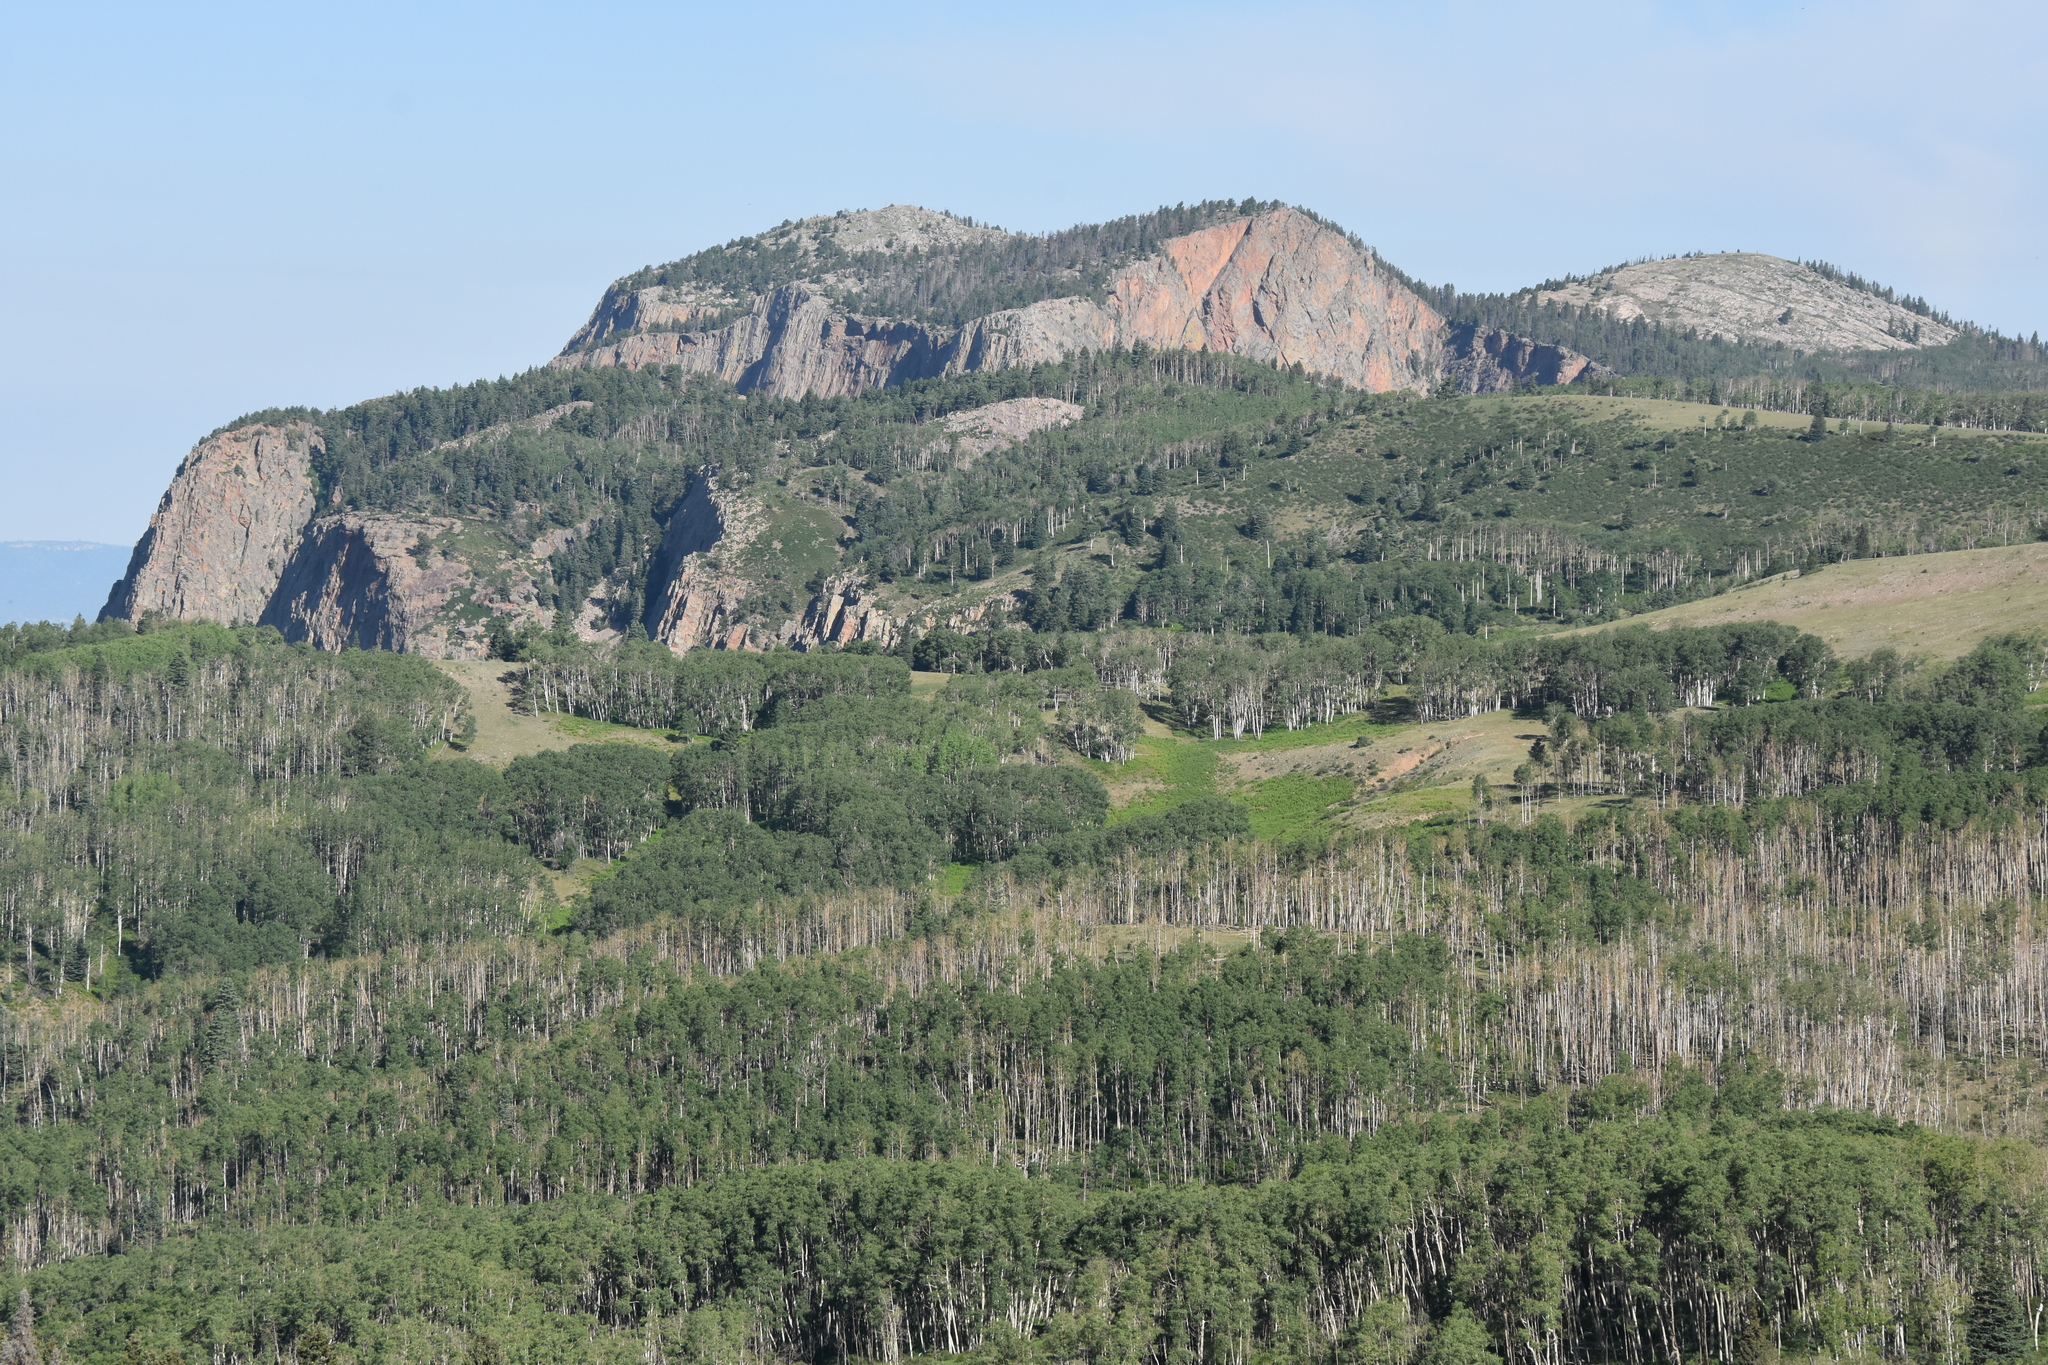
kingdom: Plantae
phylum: Tracheophyta
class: Magnoliopsida
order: Malpighiales
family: Salicaceae
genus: Populus
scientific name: Populus tremuloides
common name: Quaking aspen
